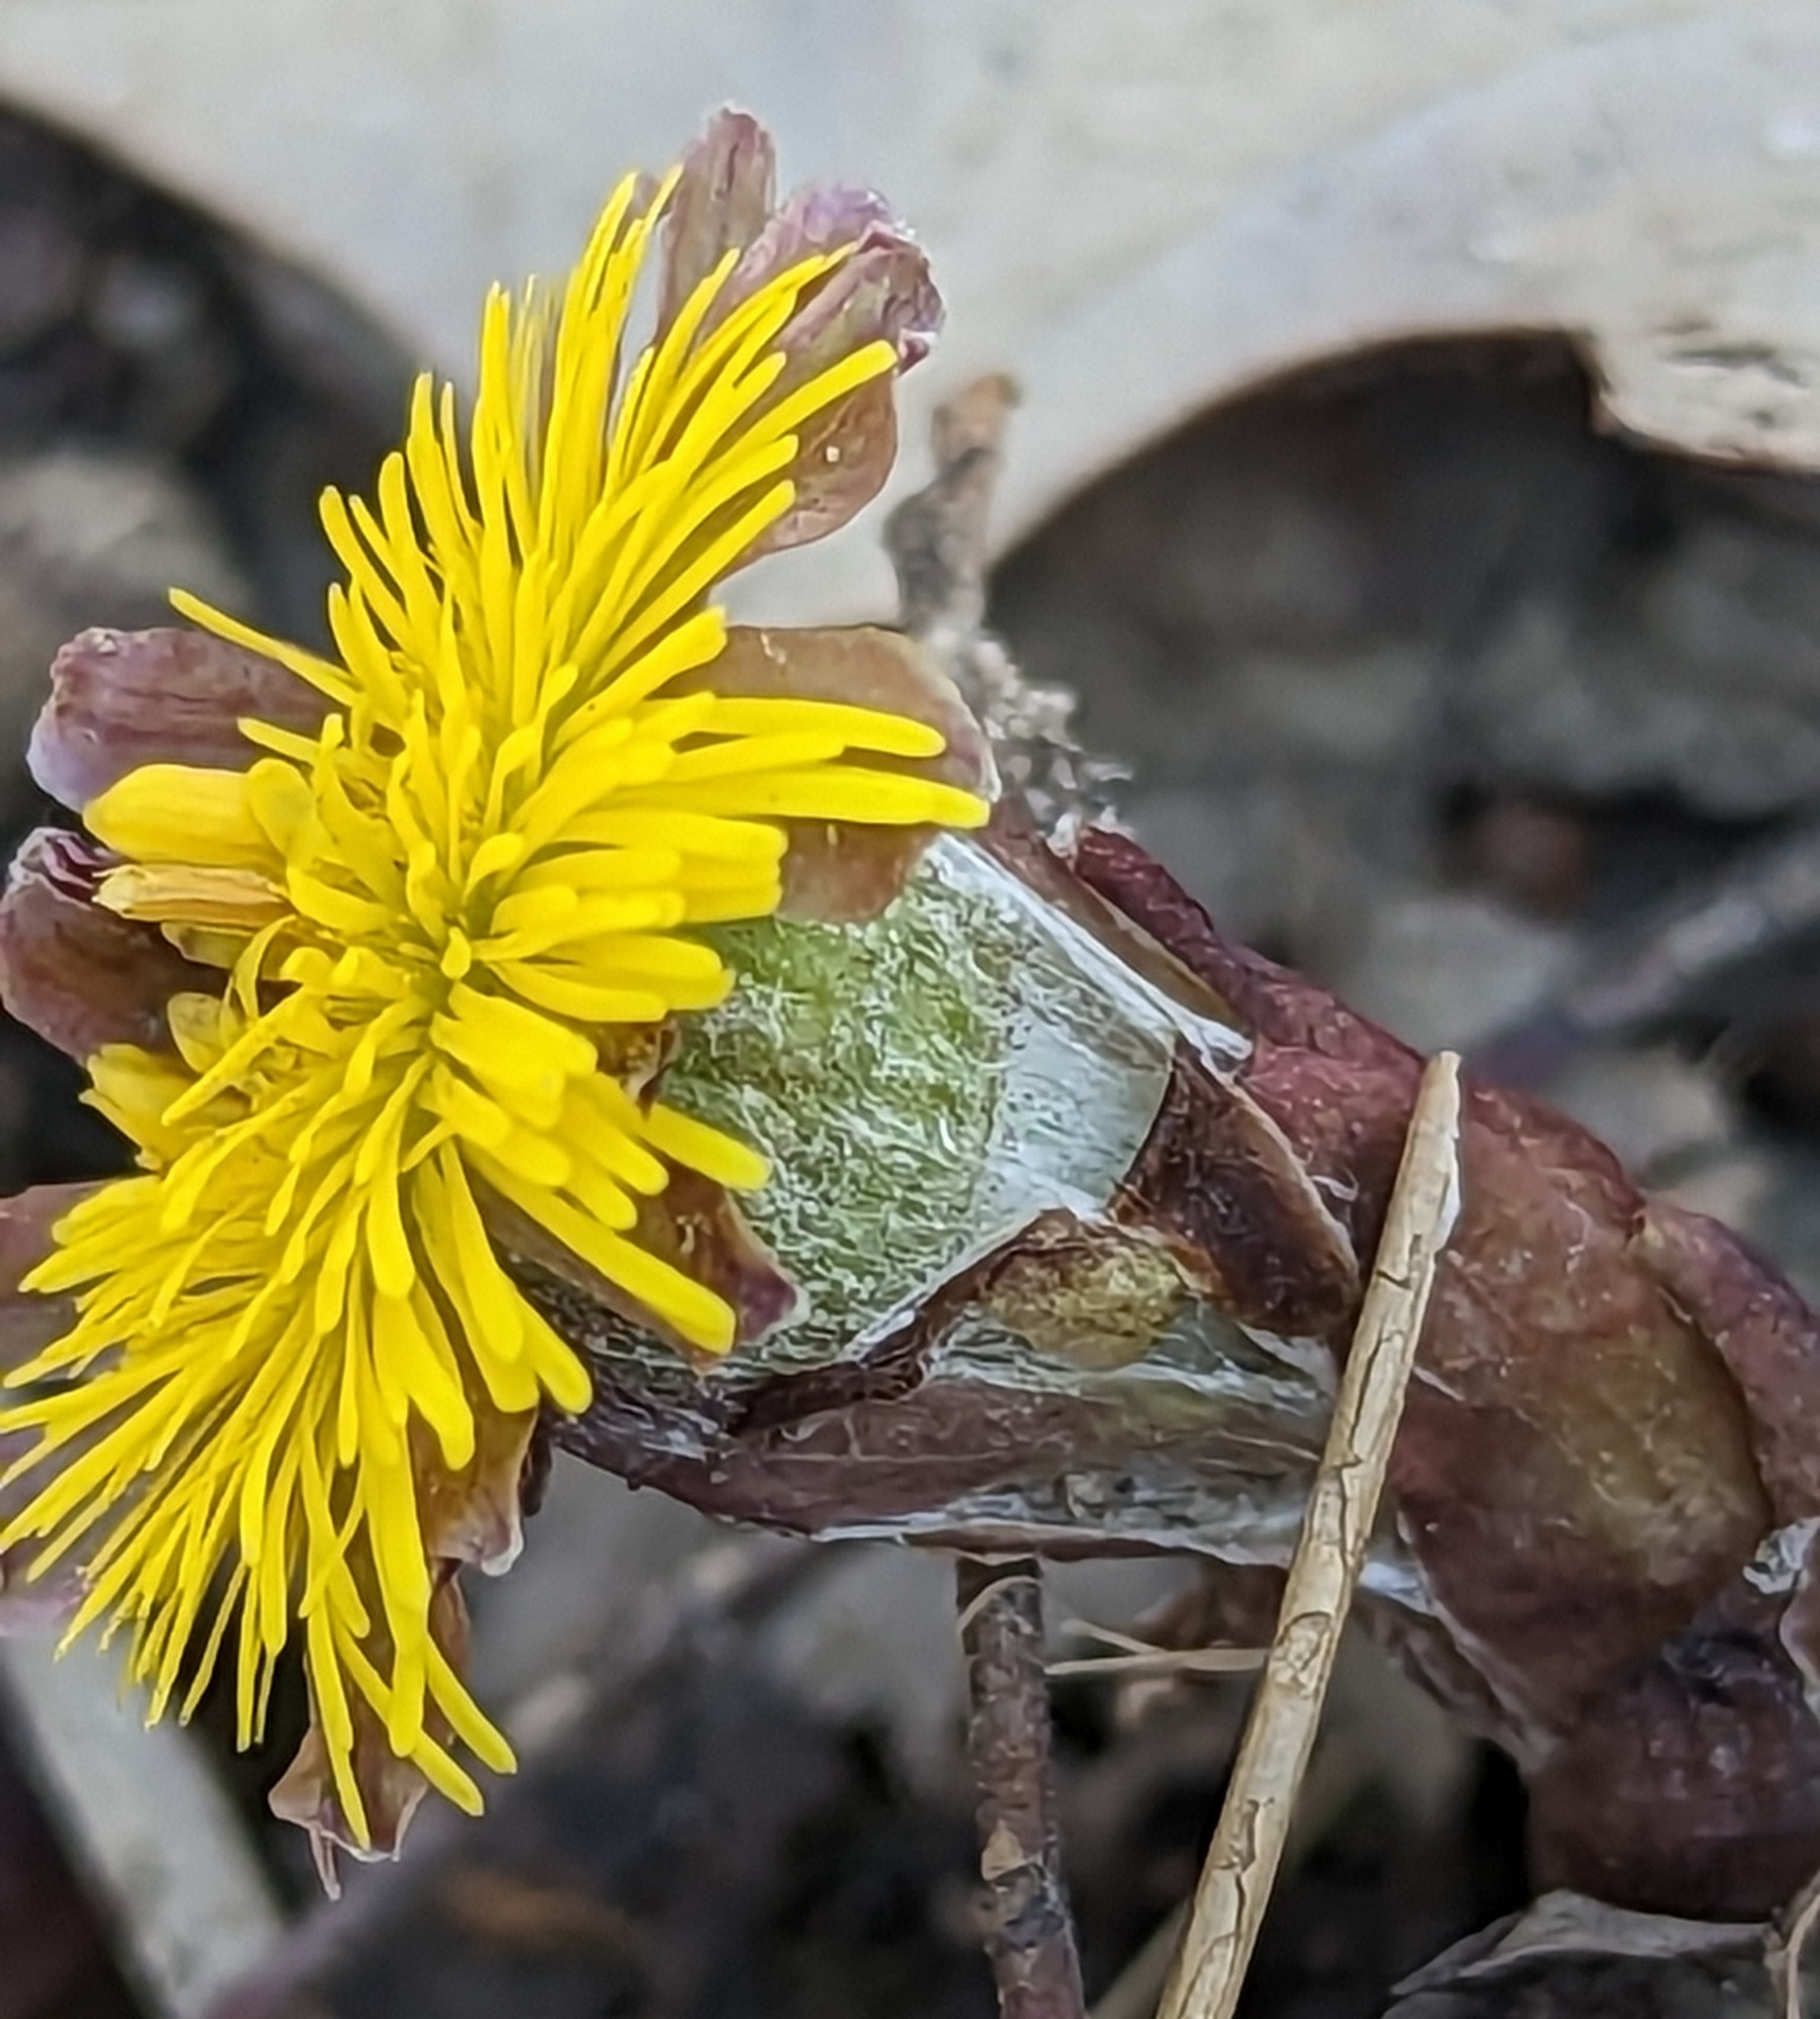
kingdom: Plantae
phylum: Tracheophyta
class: Magnoliopsida
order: Asterales
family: Asteraceae
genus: Tussilago
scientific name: Tussilago farfara
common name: Coltsfoot
